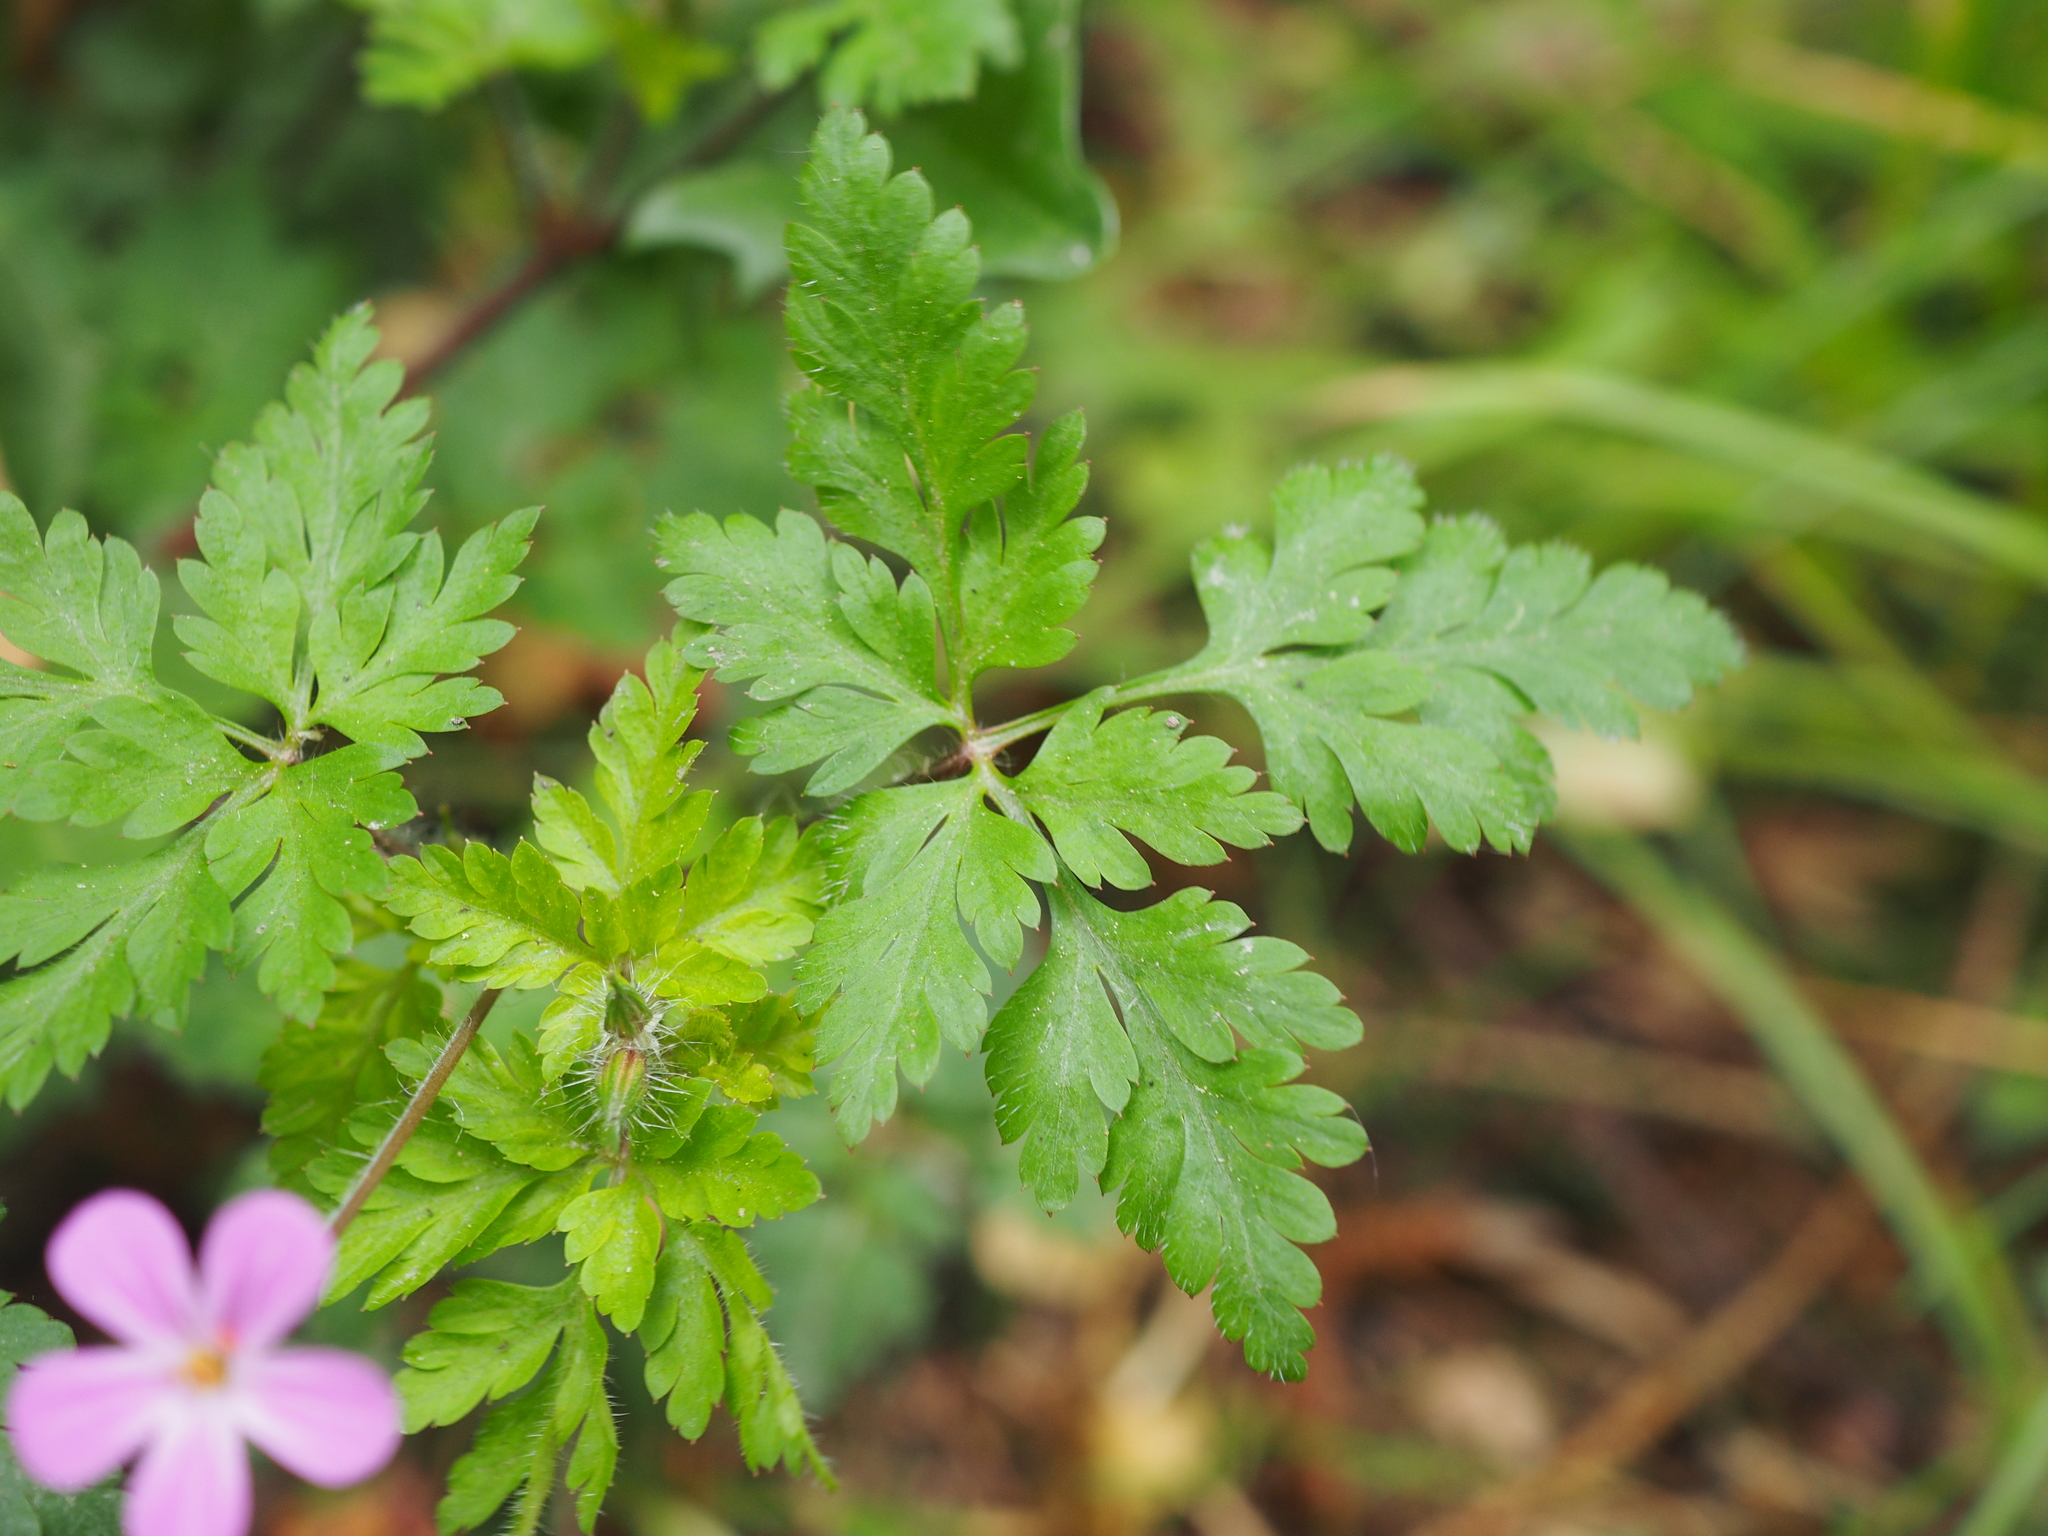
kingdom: Plantae
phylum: Tracheophyta
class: Magnoliopsida
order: Geraniales
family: Geraniaceae
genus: Geranium
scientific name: Geranium robertianum
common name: Herb-robert
